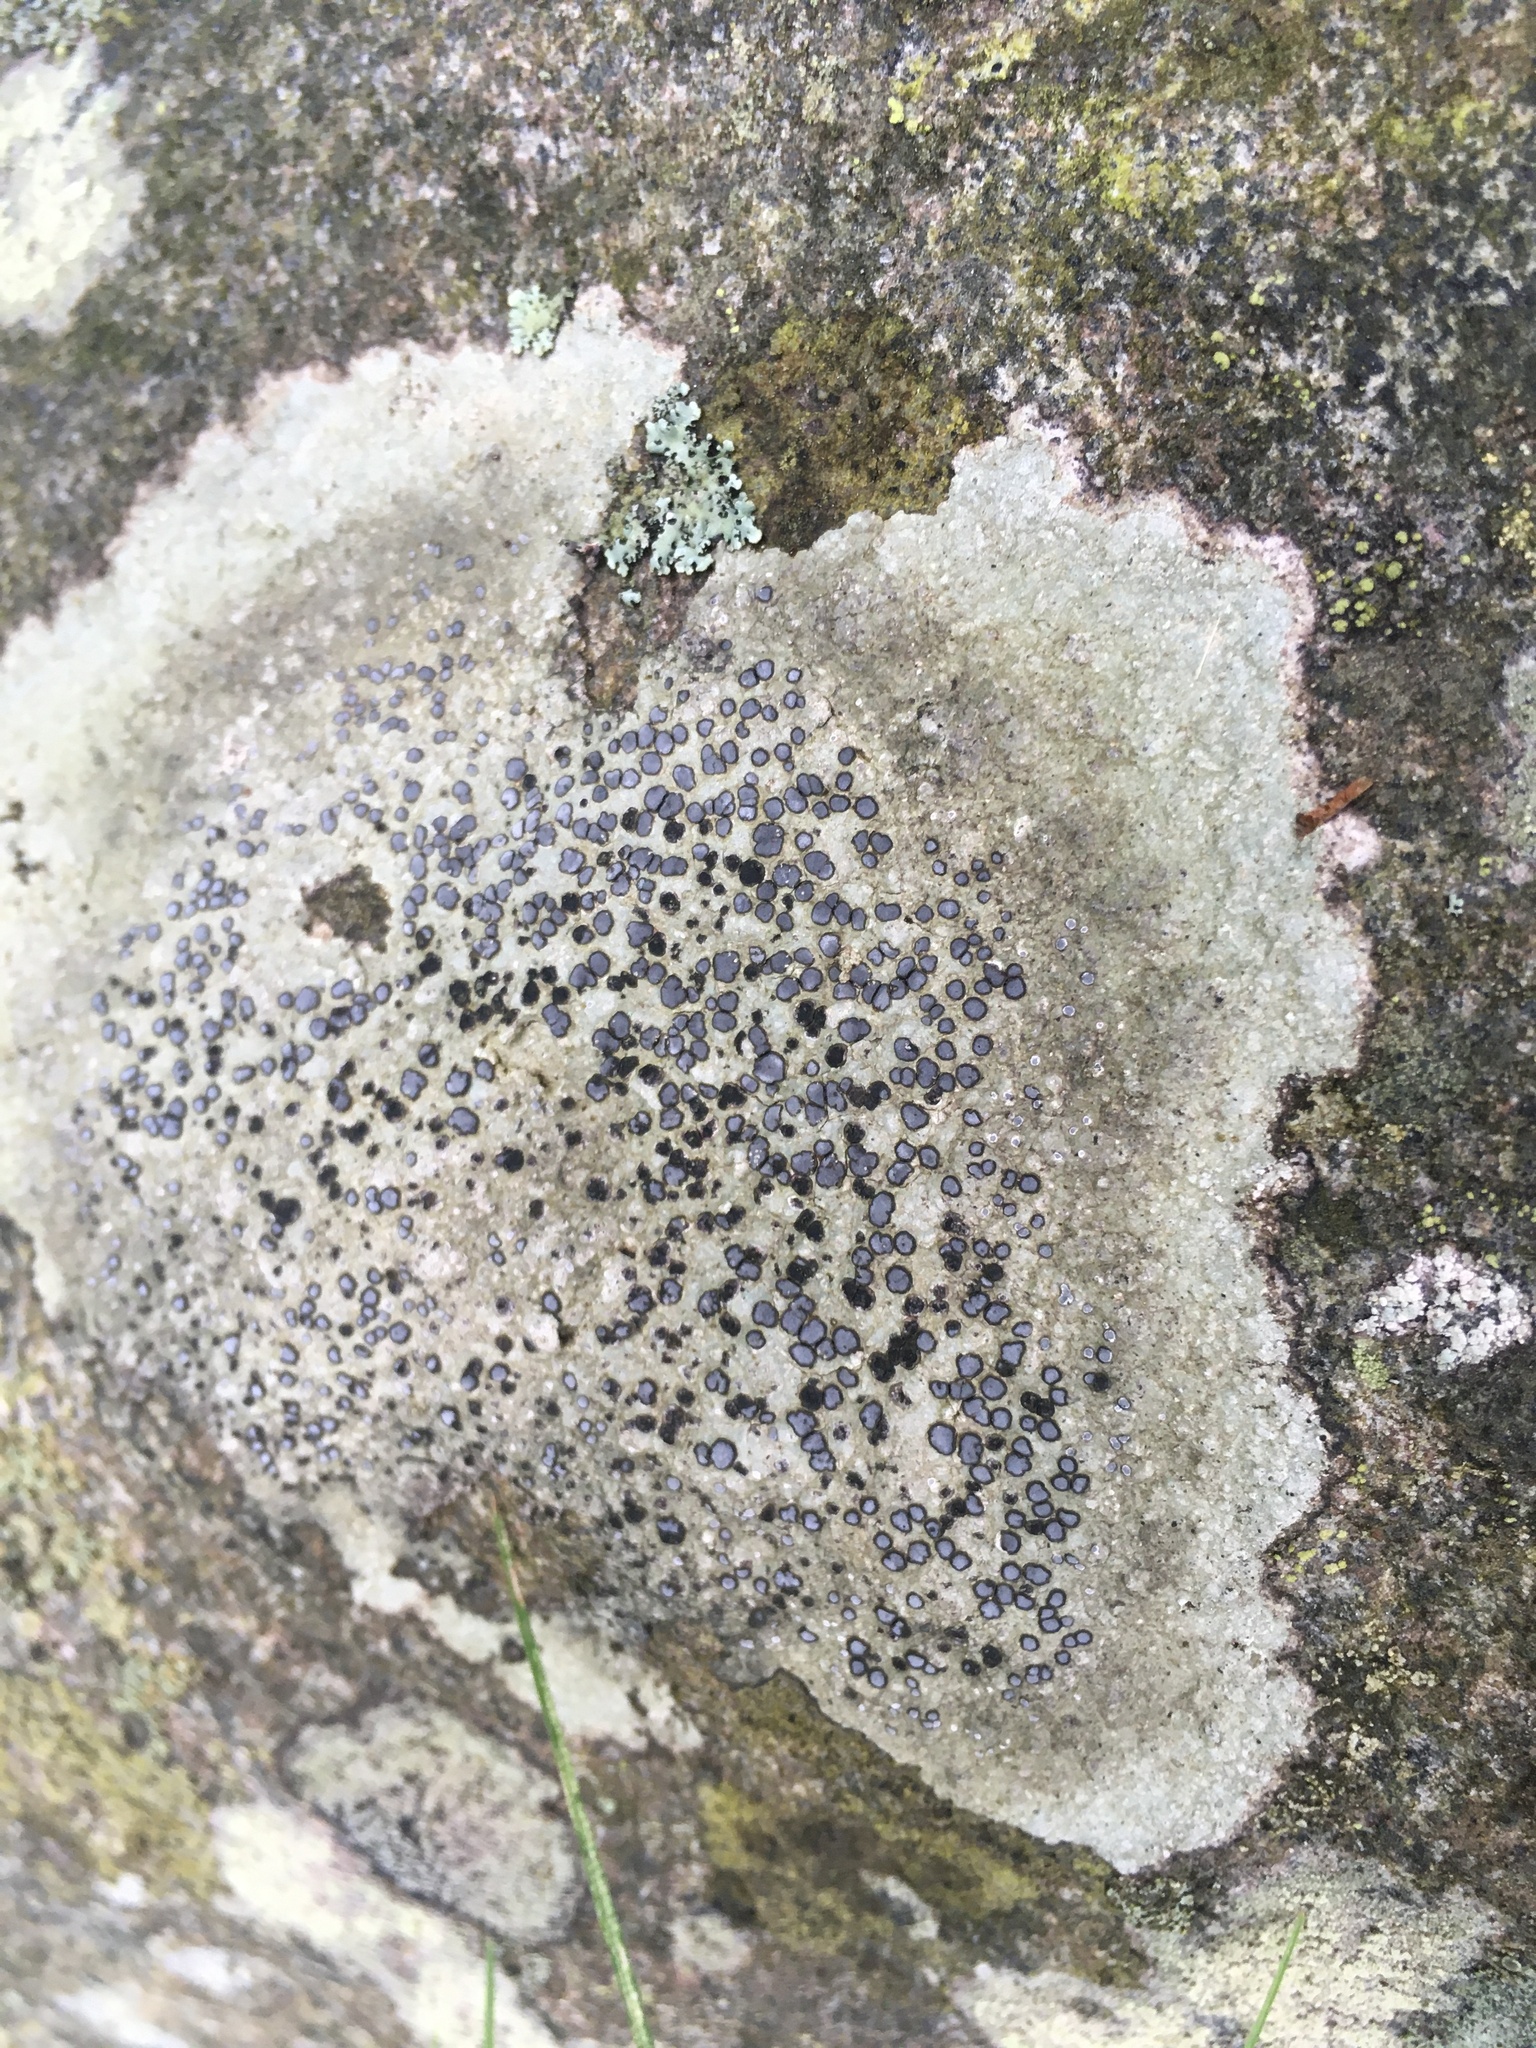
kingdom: Fungi
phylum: Ascomycota
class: Lecanoromycetes
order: Lecideales
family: Lecideaceae
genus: Porpidia
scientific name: Porpidia albocaerulescens
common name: Smokey-eyed boulder lichen
